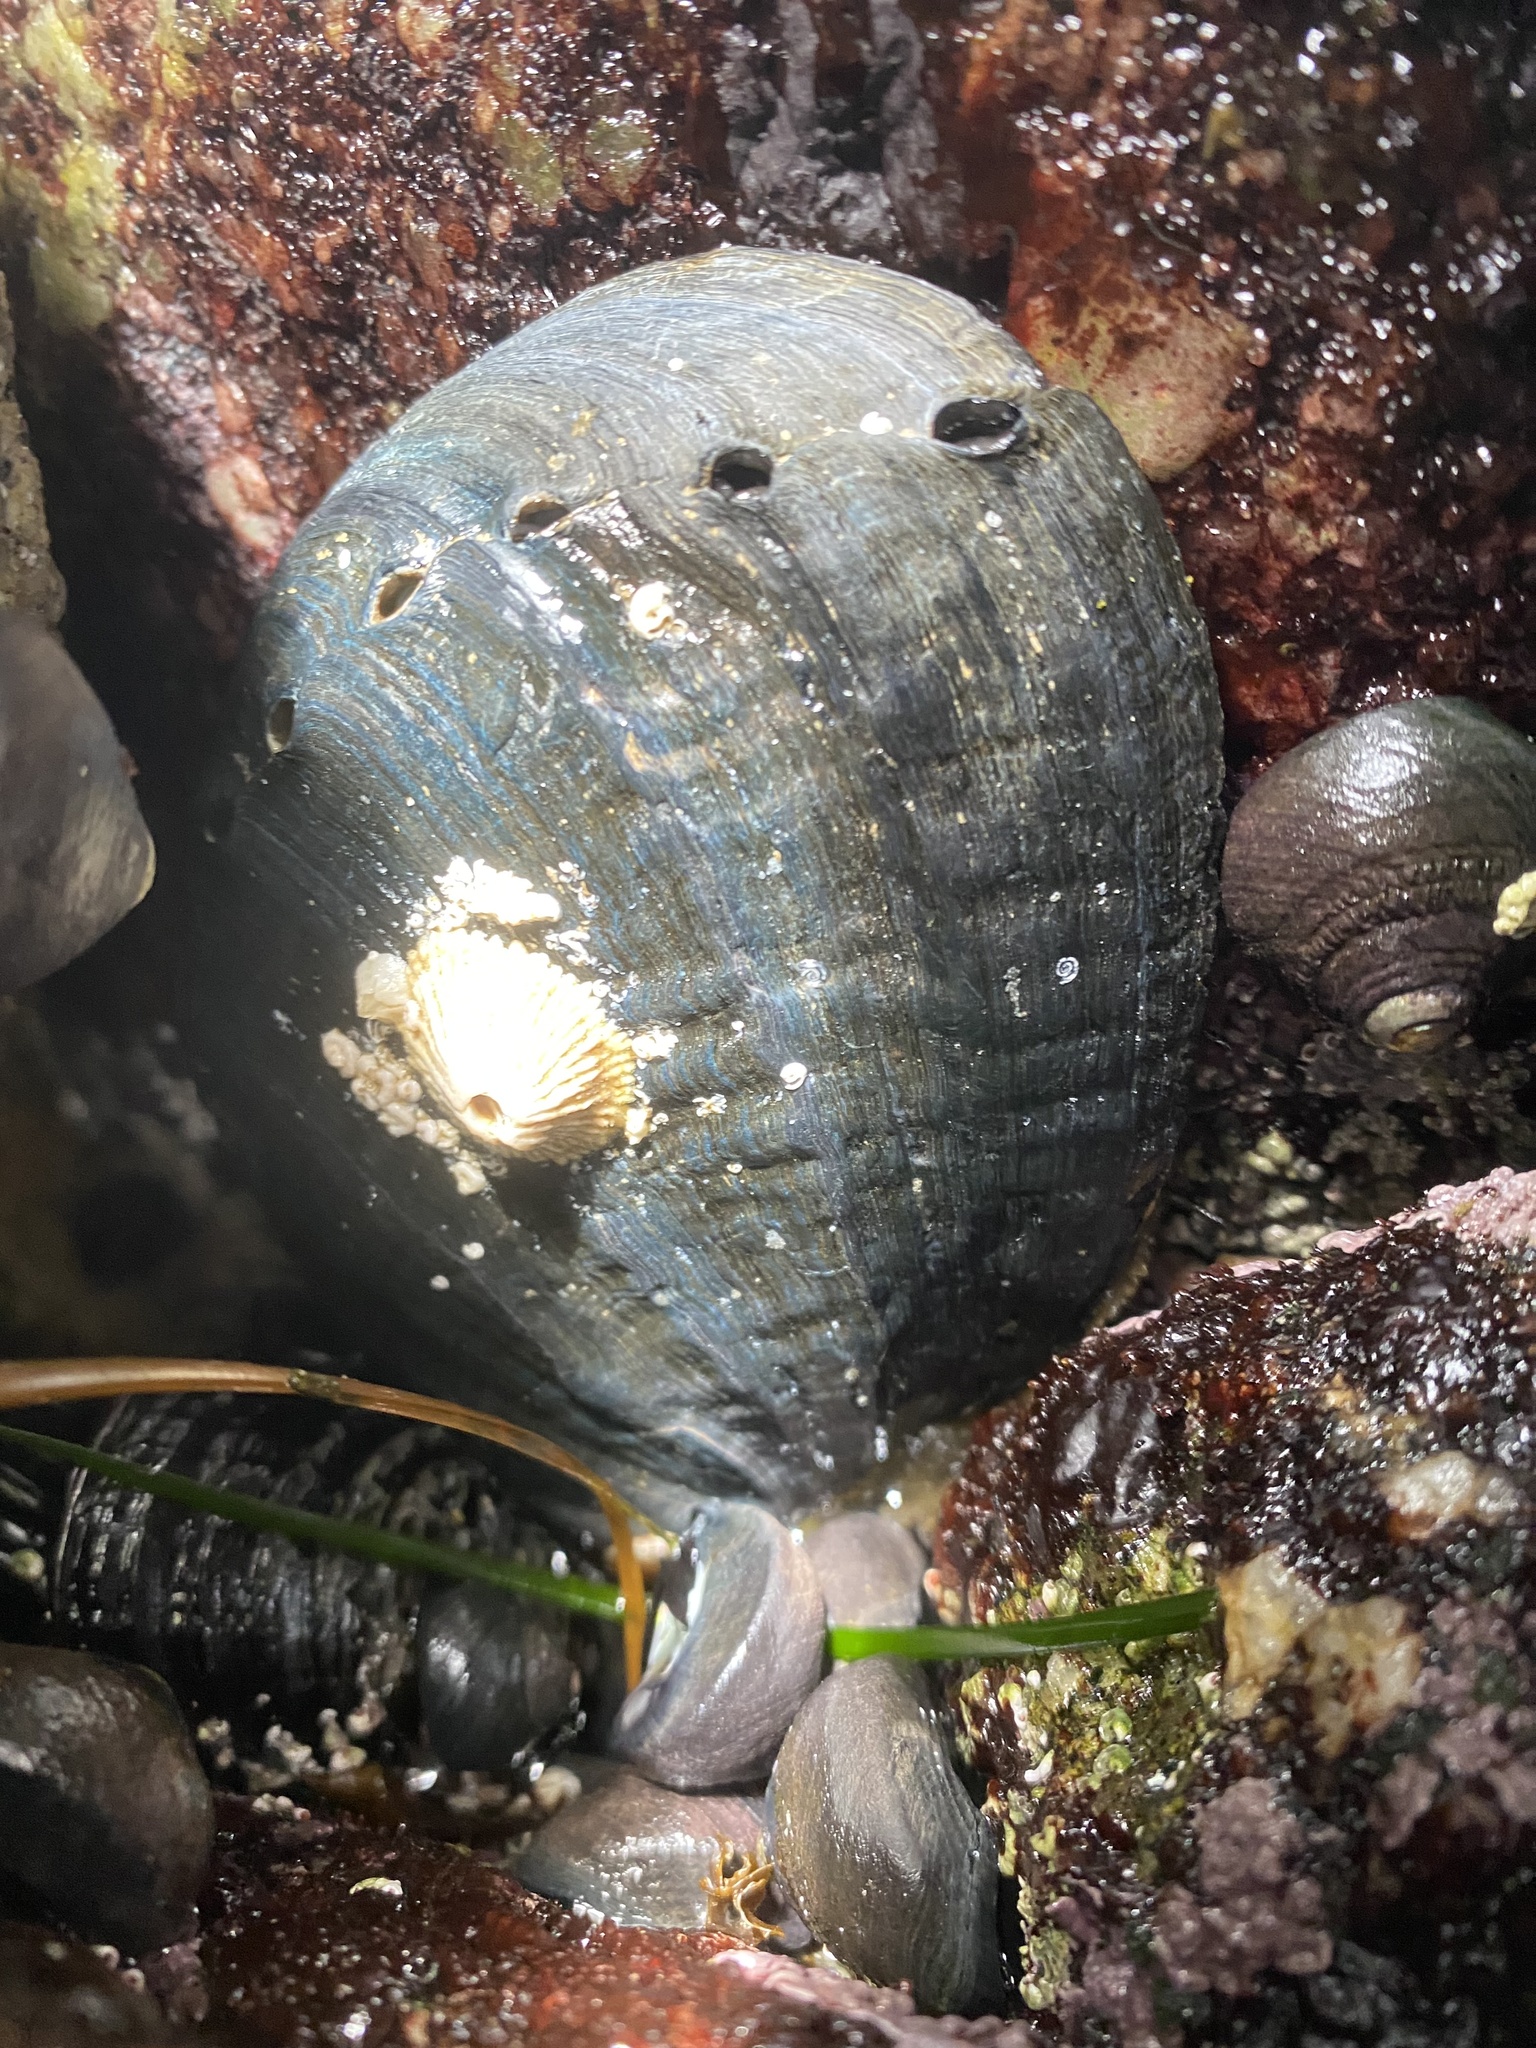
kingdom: Animalia
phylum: Mollusca
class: Gastropoda
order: Lepetellida
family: Haliotidae
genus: Haliotis
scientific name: Haliotis cracherodii
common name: Black abalone
